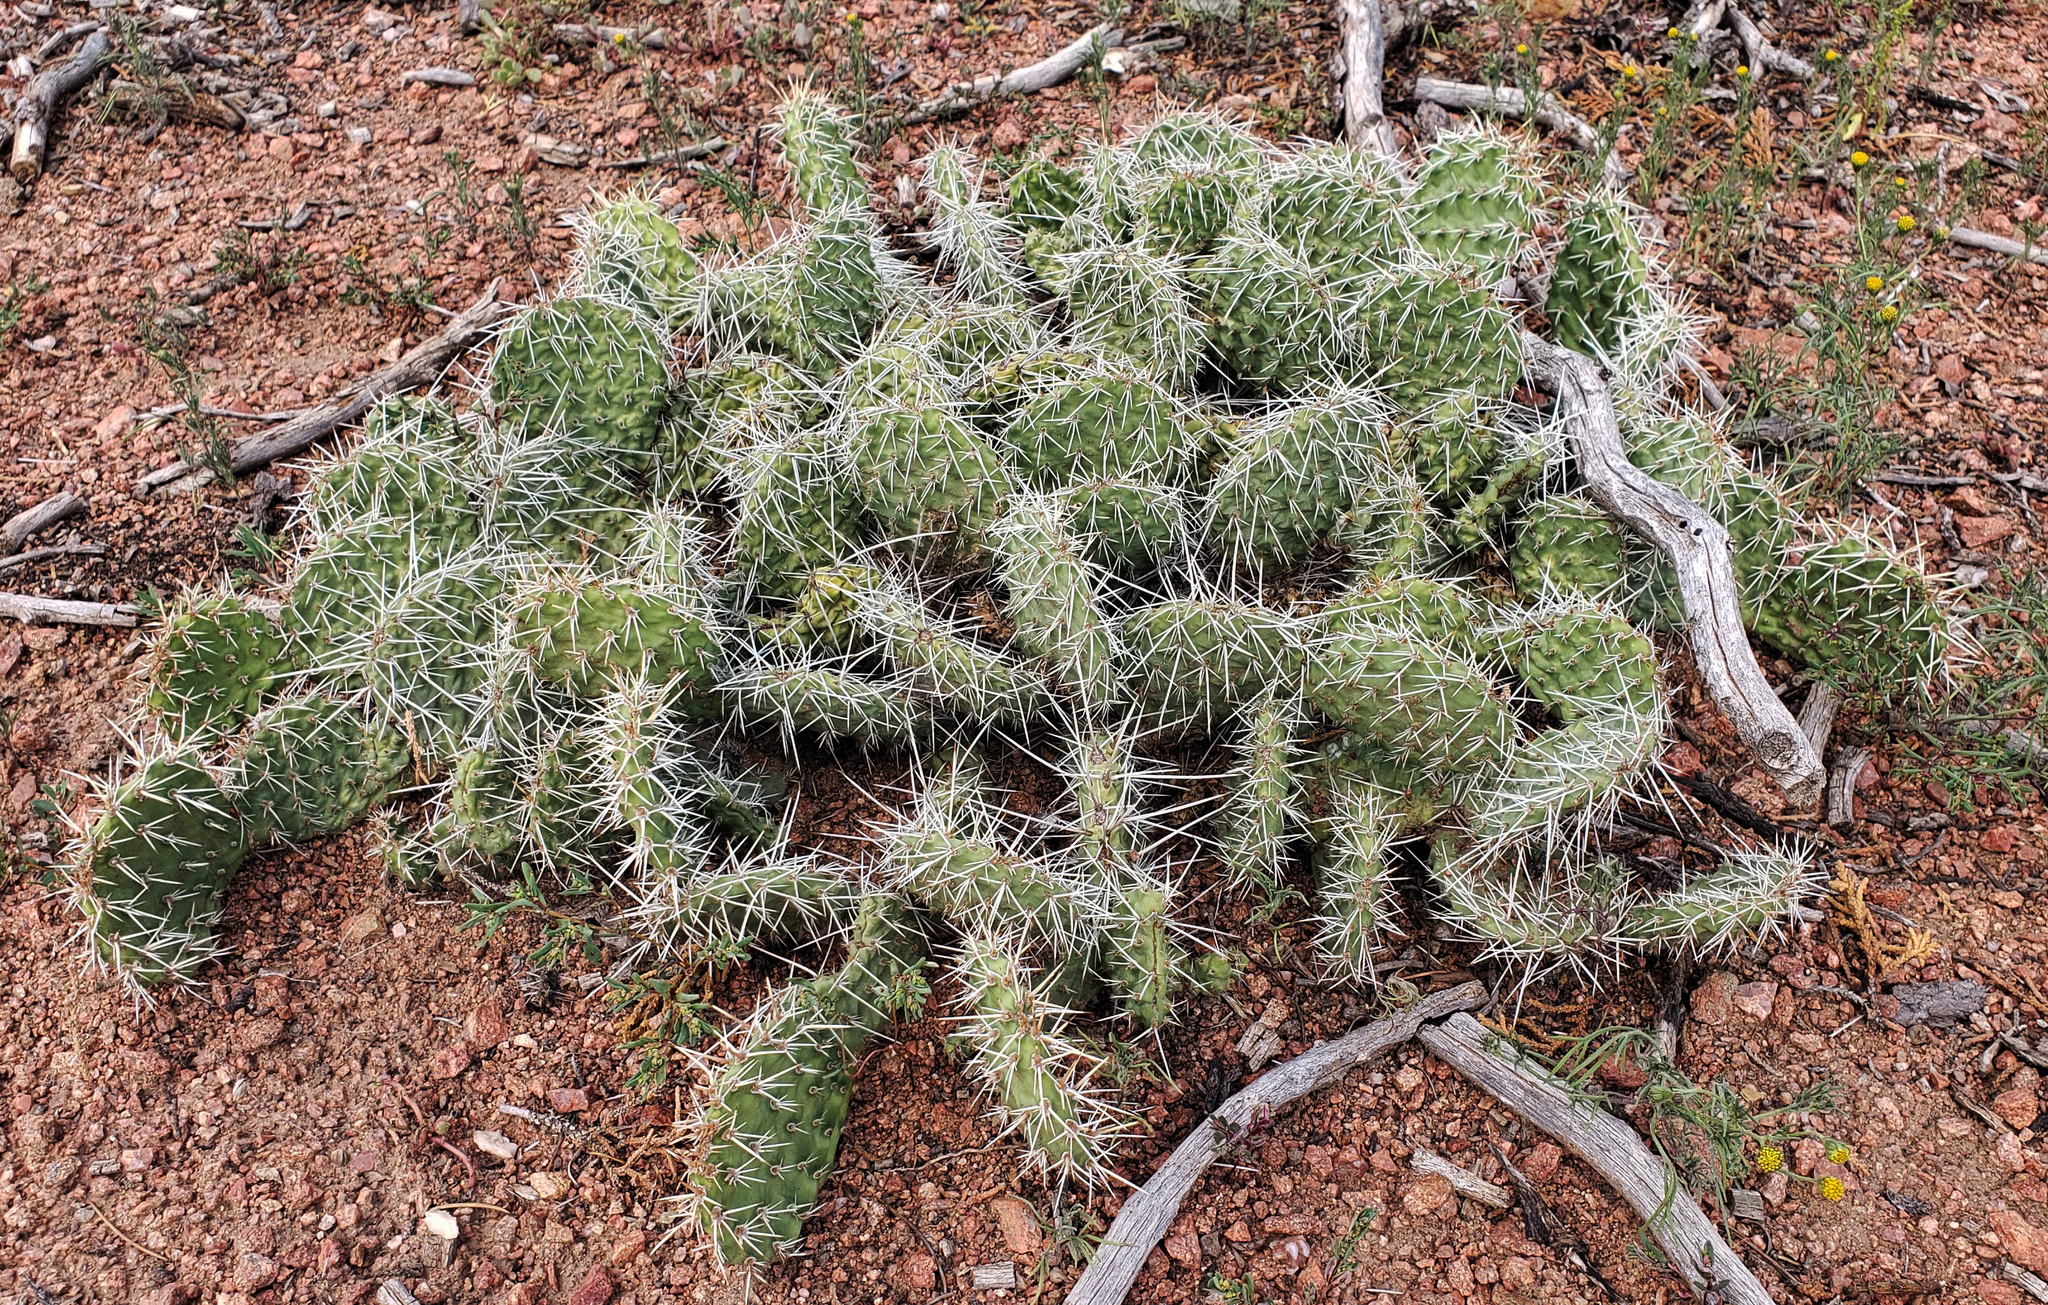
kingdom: Plantae
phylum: Tracheophyta
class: Magnoliopsida
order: Caryophyllales
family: Cactaceae
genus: Opuntia
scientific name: Opuntia polyacantha
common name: Plains prickly-pear
